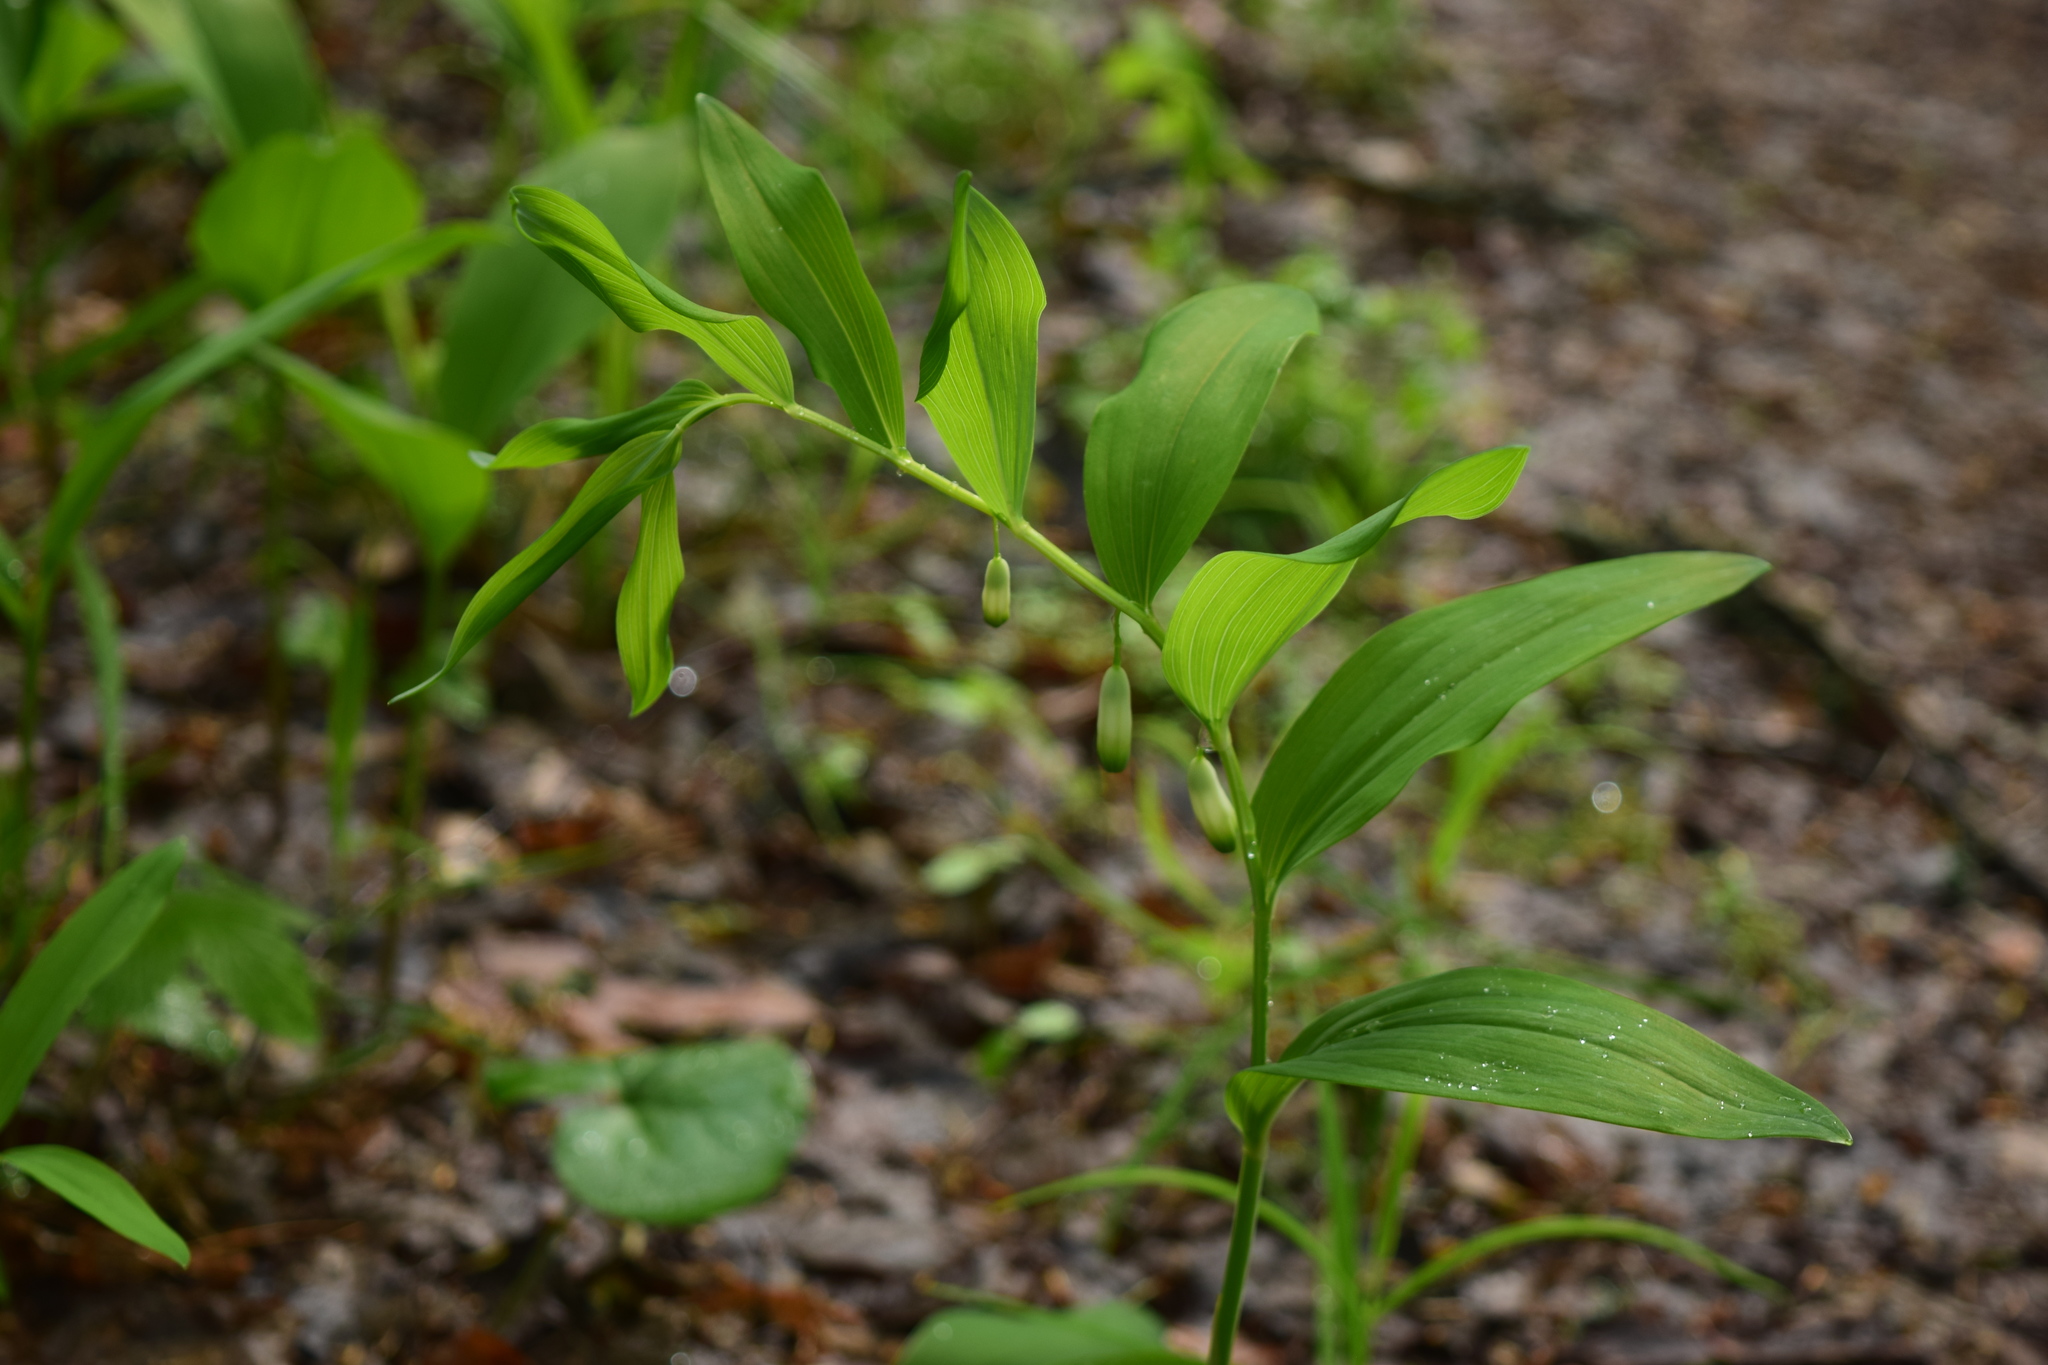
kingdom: Plantae
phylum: Tracheophyta
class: Liliopsida
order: Asparagales
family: Asparagaceae
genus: Polygonatum
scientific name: Polygonatum odoratum
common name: Angular solomon's-seal
